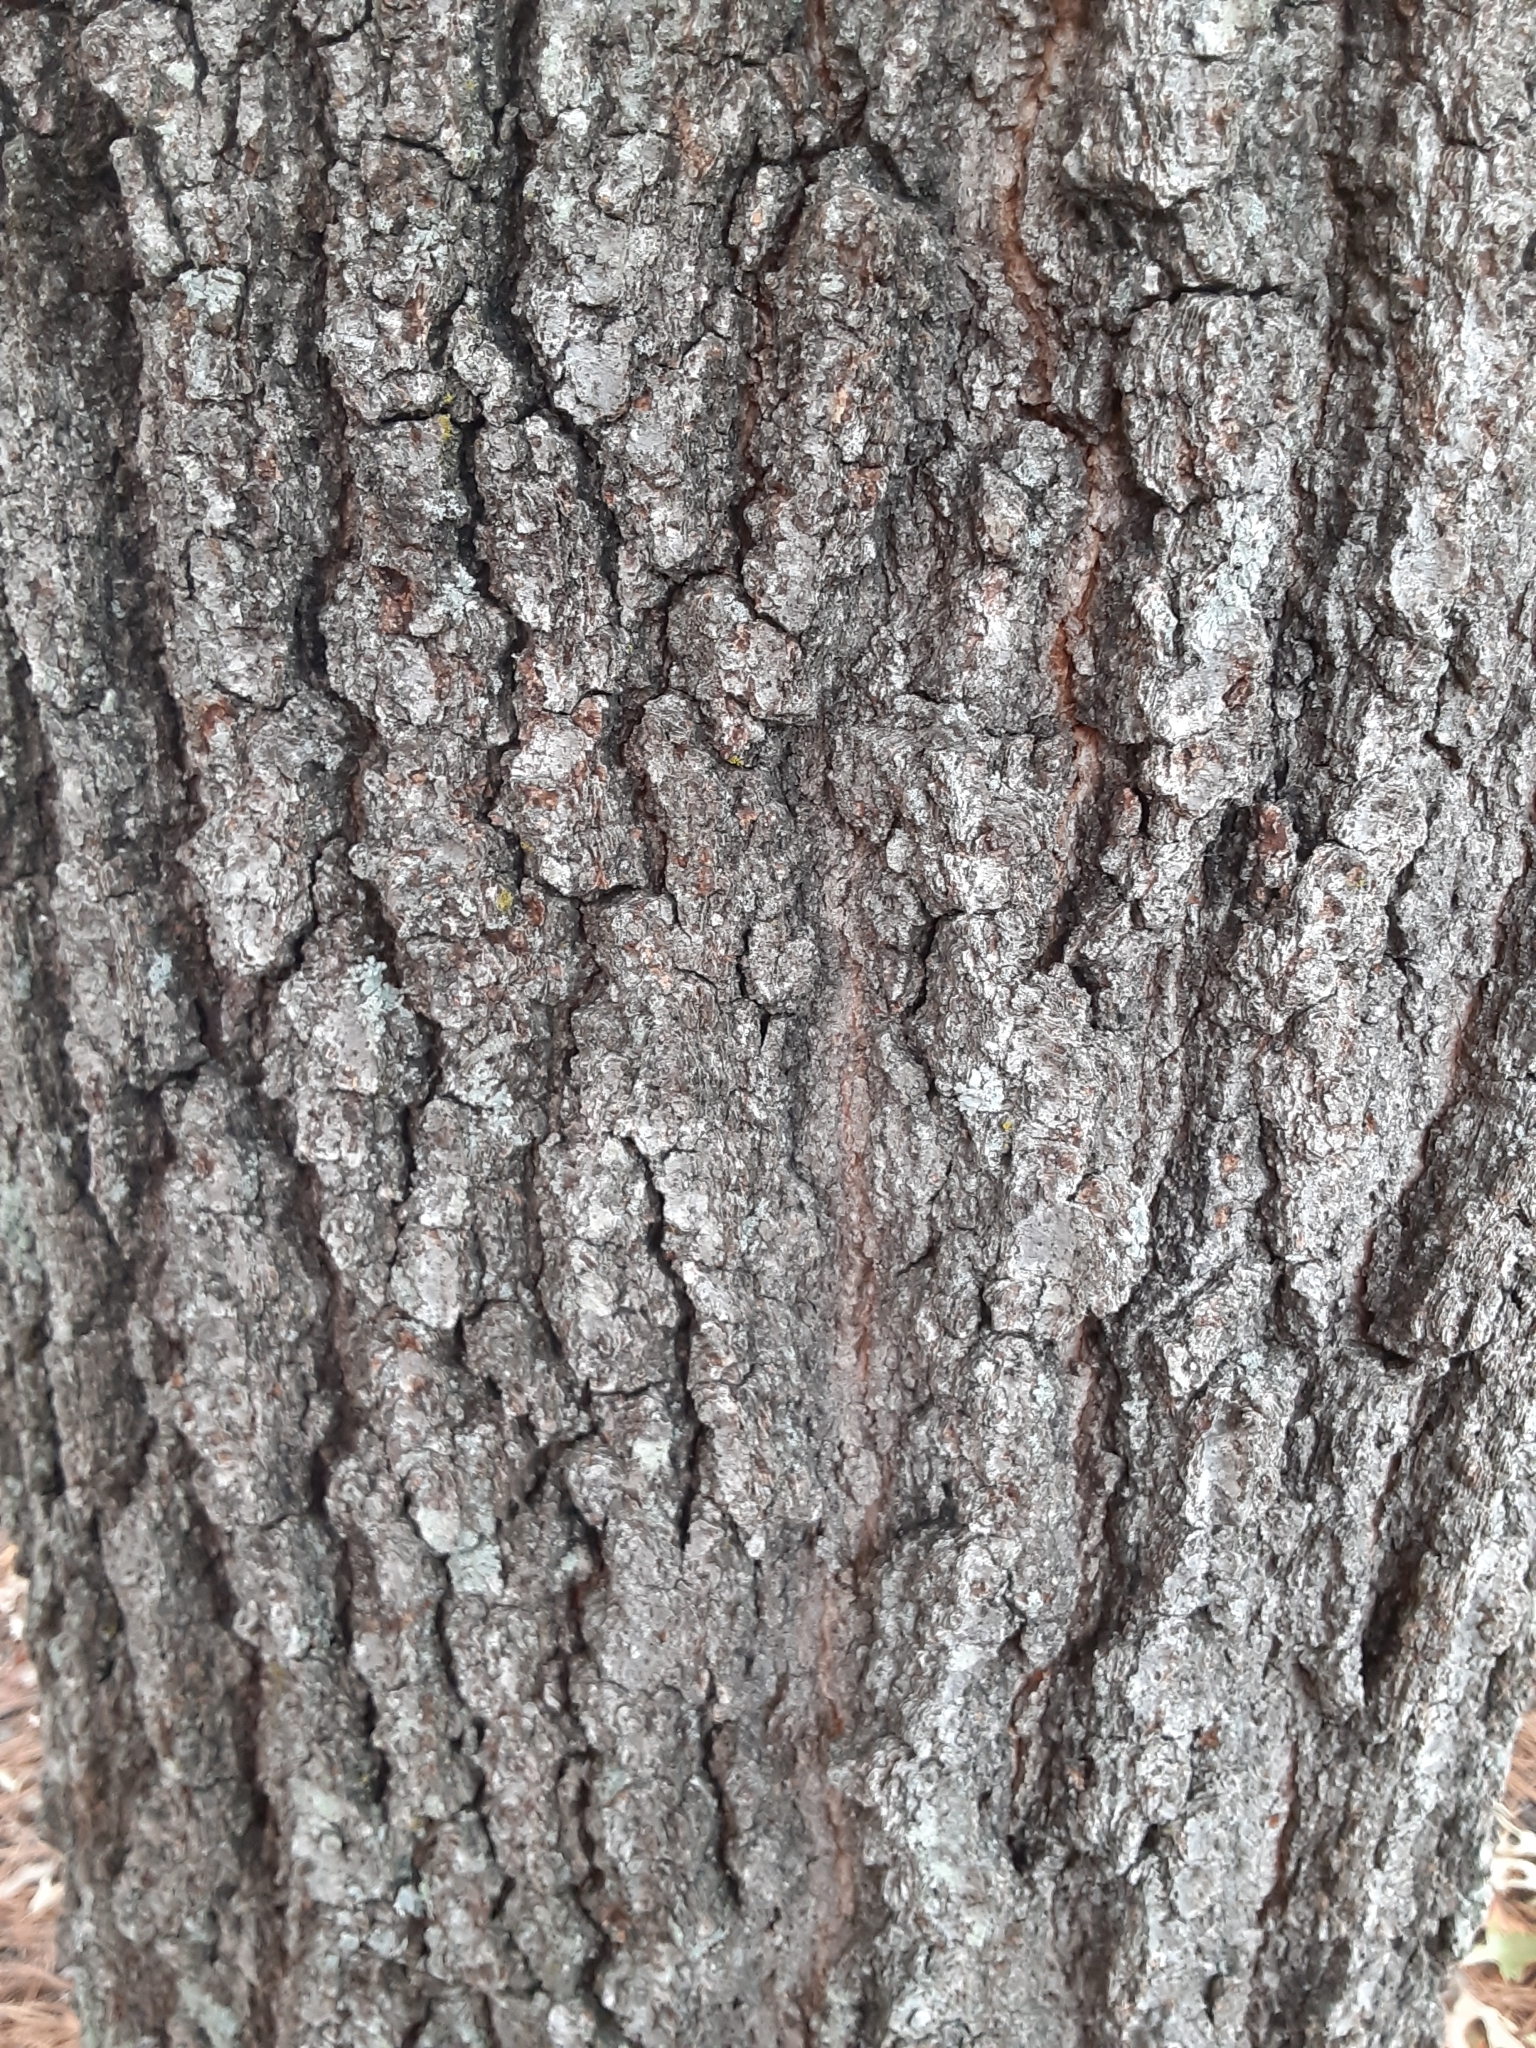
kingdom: Plantae
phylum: Tracheophyta
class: Magnoliopsida
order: Fagales
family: Fagaceae
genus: Quercus
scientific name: Quercus falcata
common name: Southern red oak
